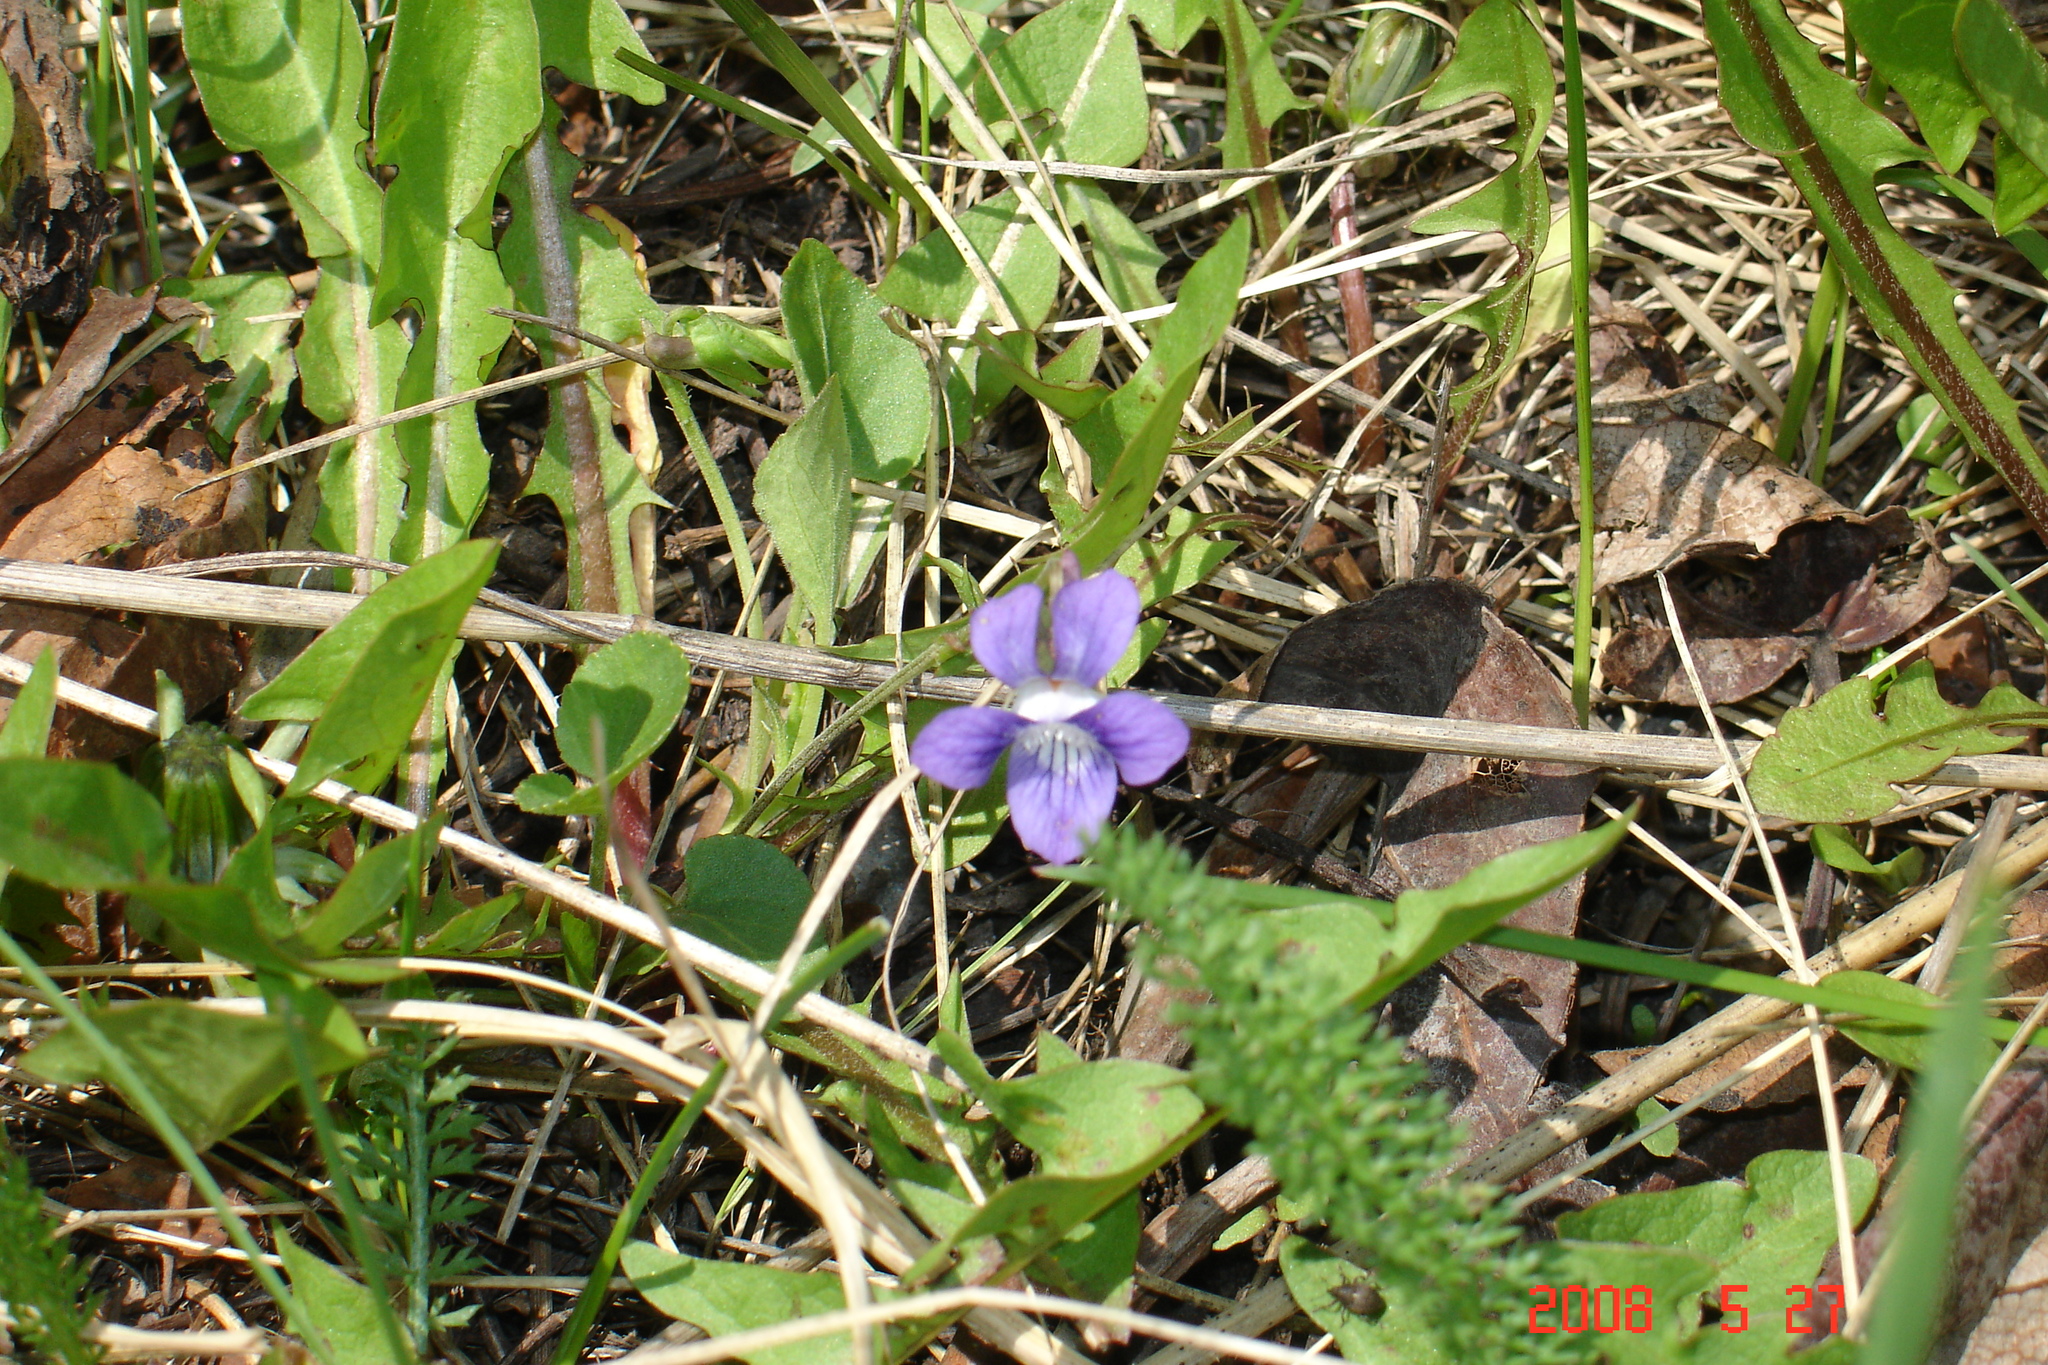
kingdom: Plantae
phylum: Tracheophyta
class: Magnoliopsida
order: Malpighiales
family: Violaceae
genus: Viola
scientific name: Viola adunca
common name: Sand violet
